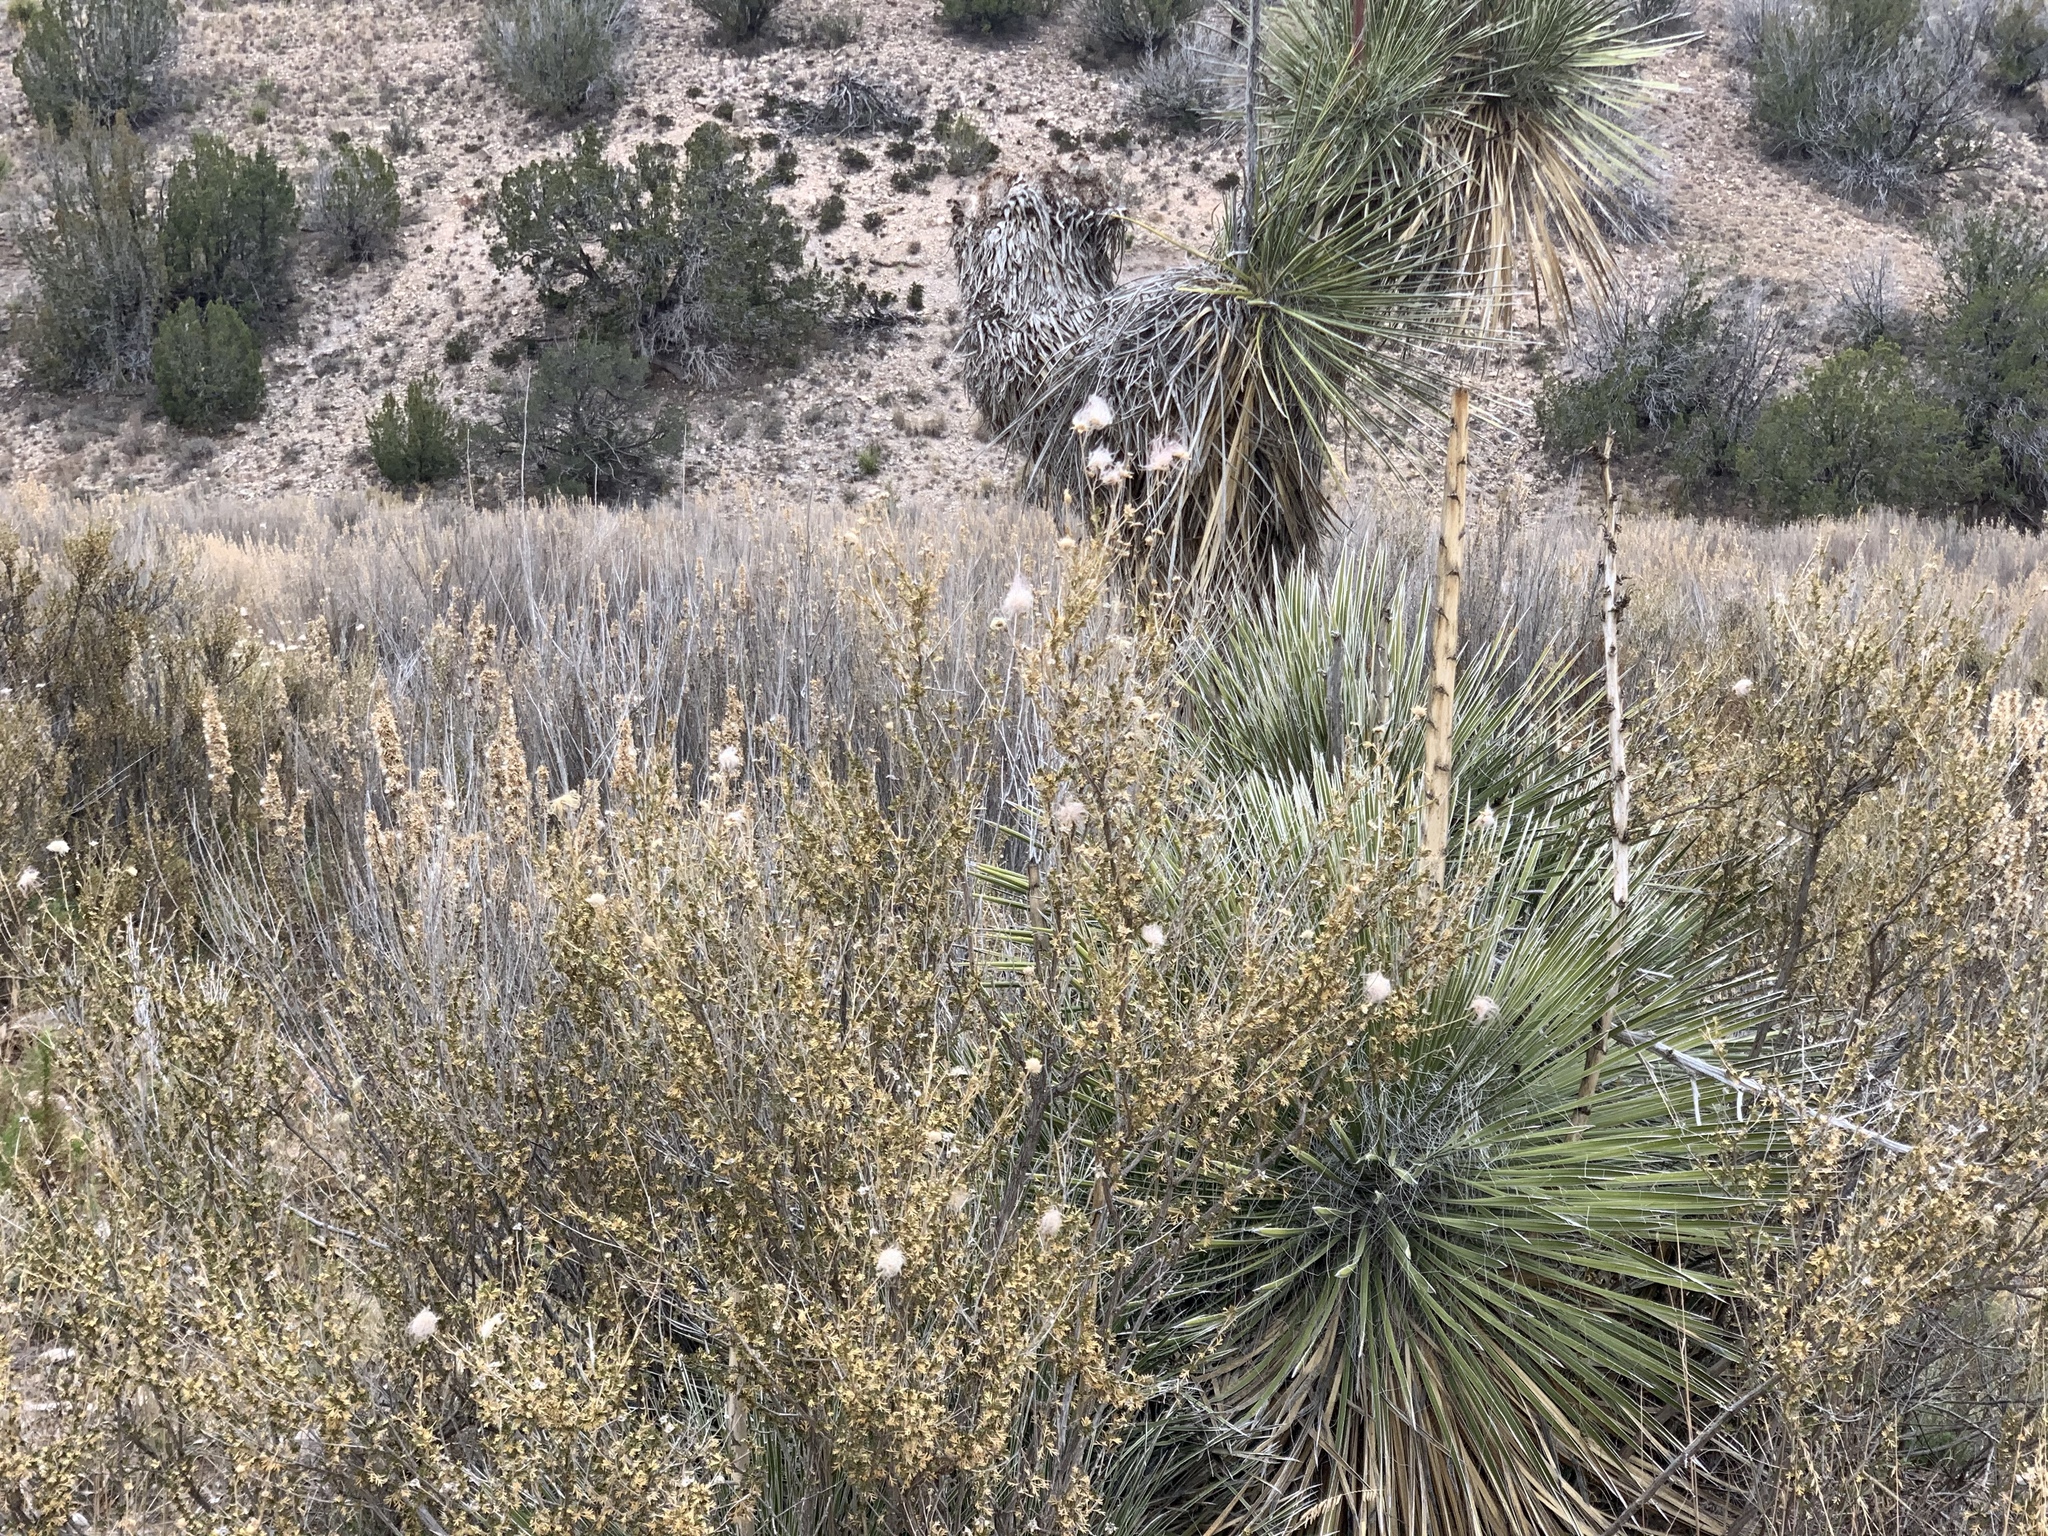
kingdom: Plantae
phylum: Tracheophyta
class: Magnoliopsida
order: Rosales
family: Rosaceae
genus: Fallugia
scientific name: Fallugia paradoxa
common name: Apache-plume
